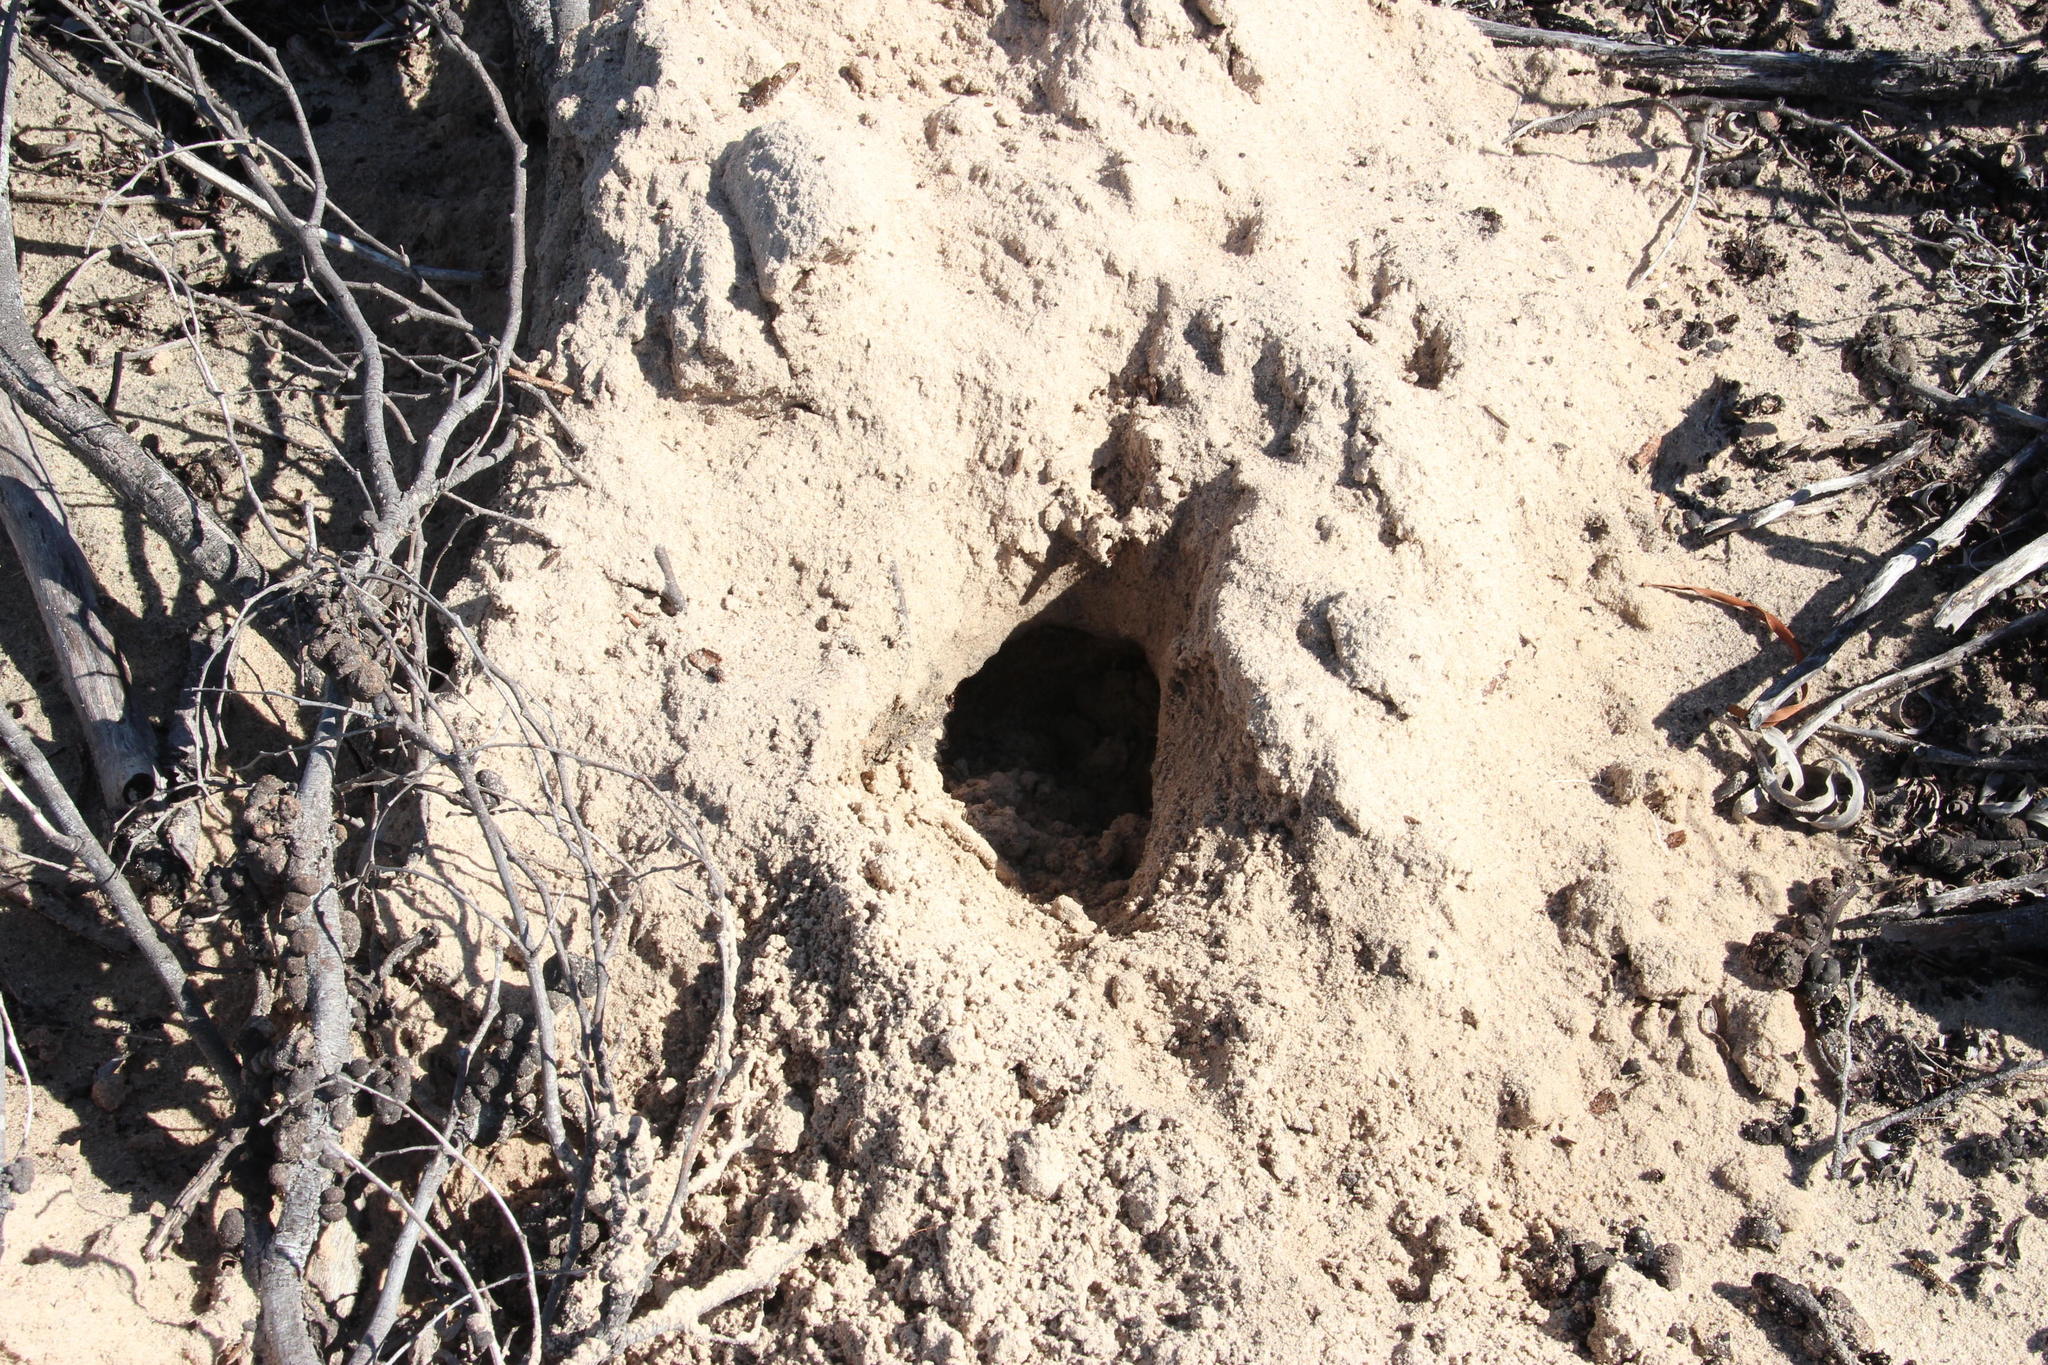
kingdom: Animalia
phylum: Chordata
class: Mammalia
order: Rodentia
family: Bathyergidae
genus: Bathyergus
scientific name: Bathyergus suillus
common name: Cape dune mole rat
